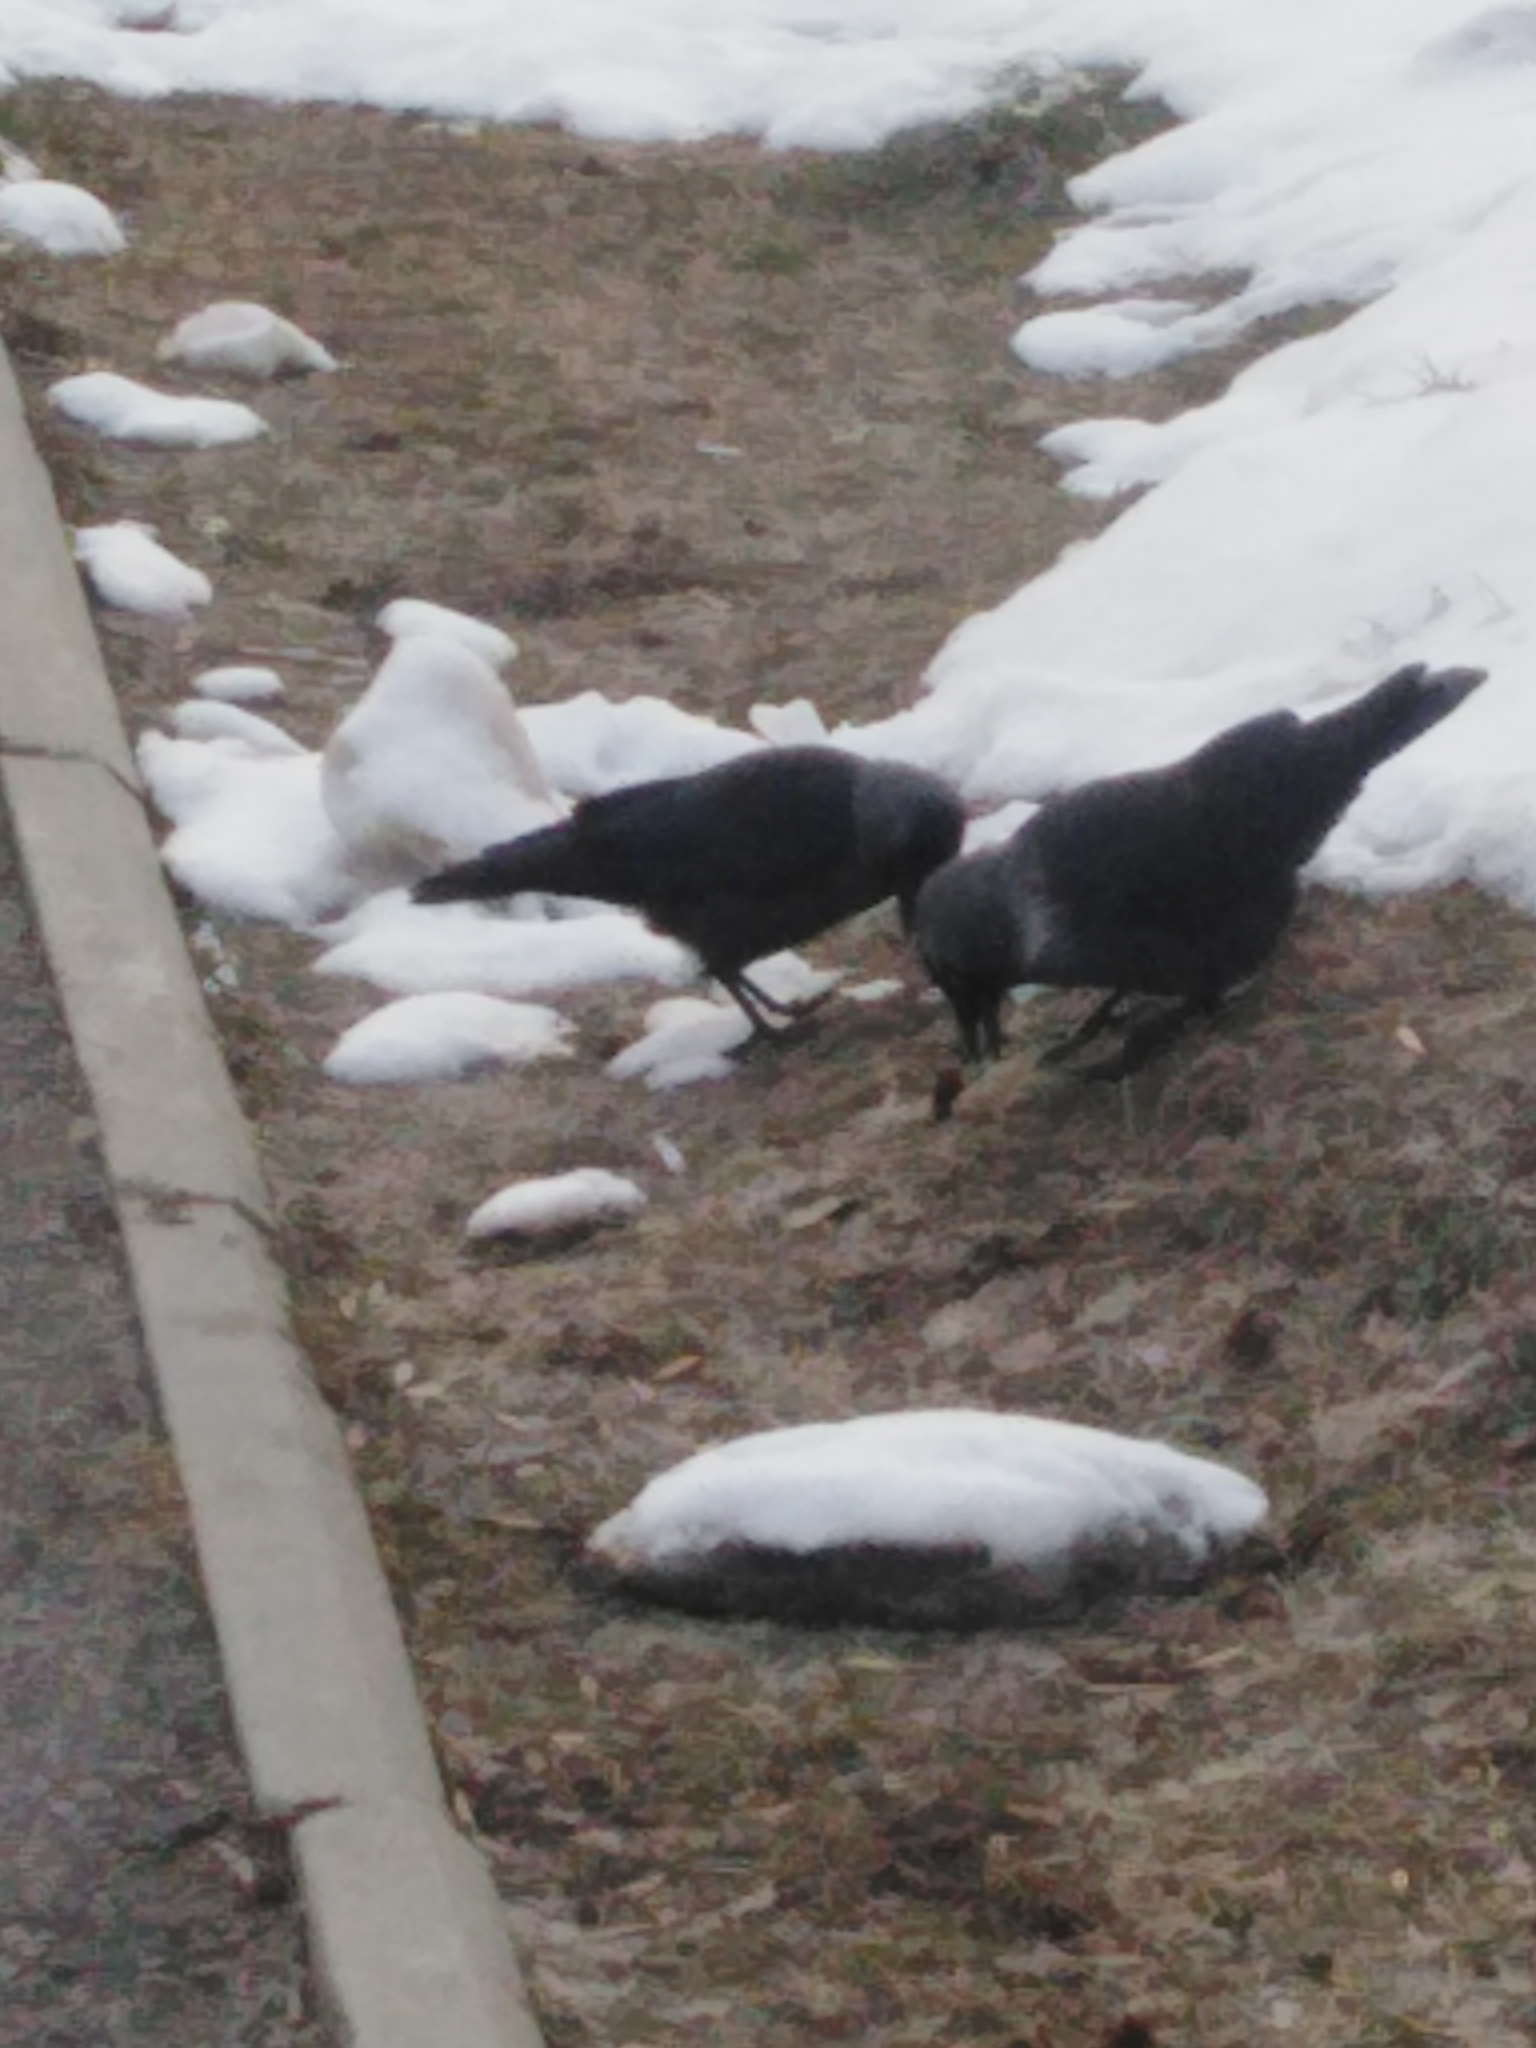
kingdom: Animalia
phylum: Chordata
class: Aves
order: Passeriformes
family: Corvidae
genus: Coloeus
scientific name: Coloeus monedula
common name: Western jackdaw
